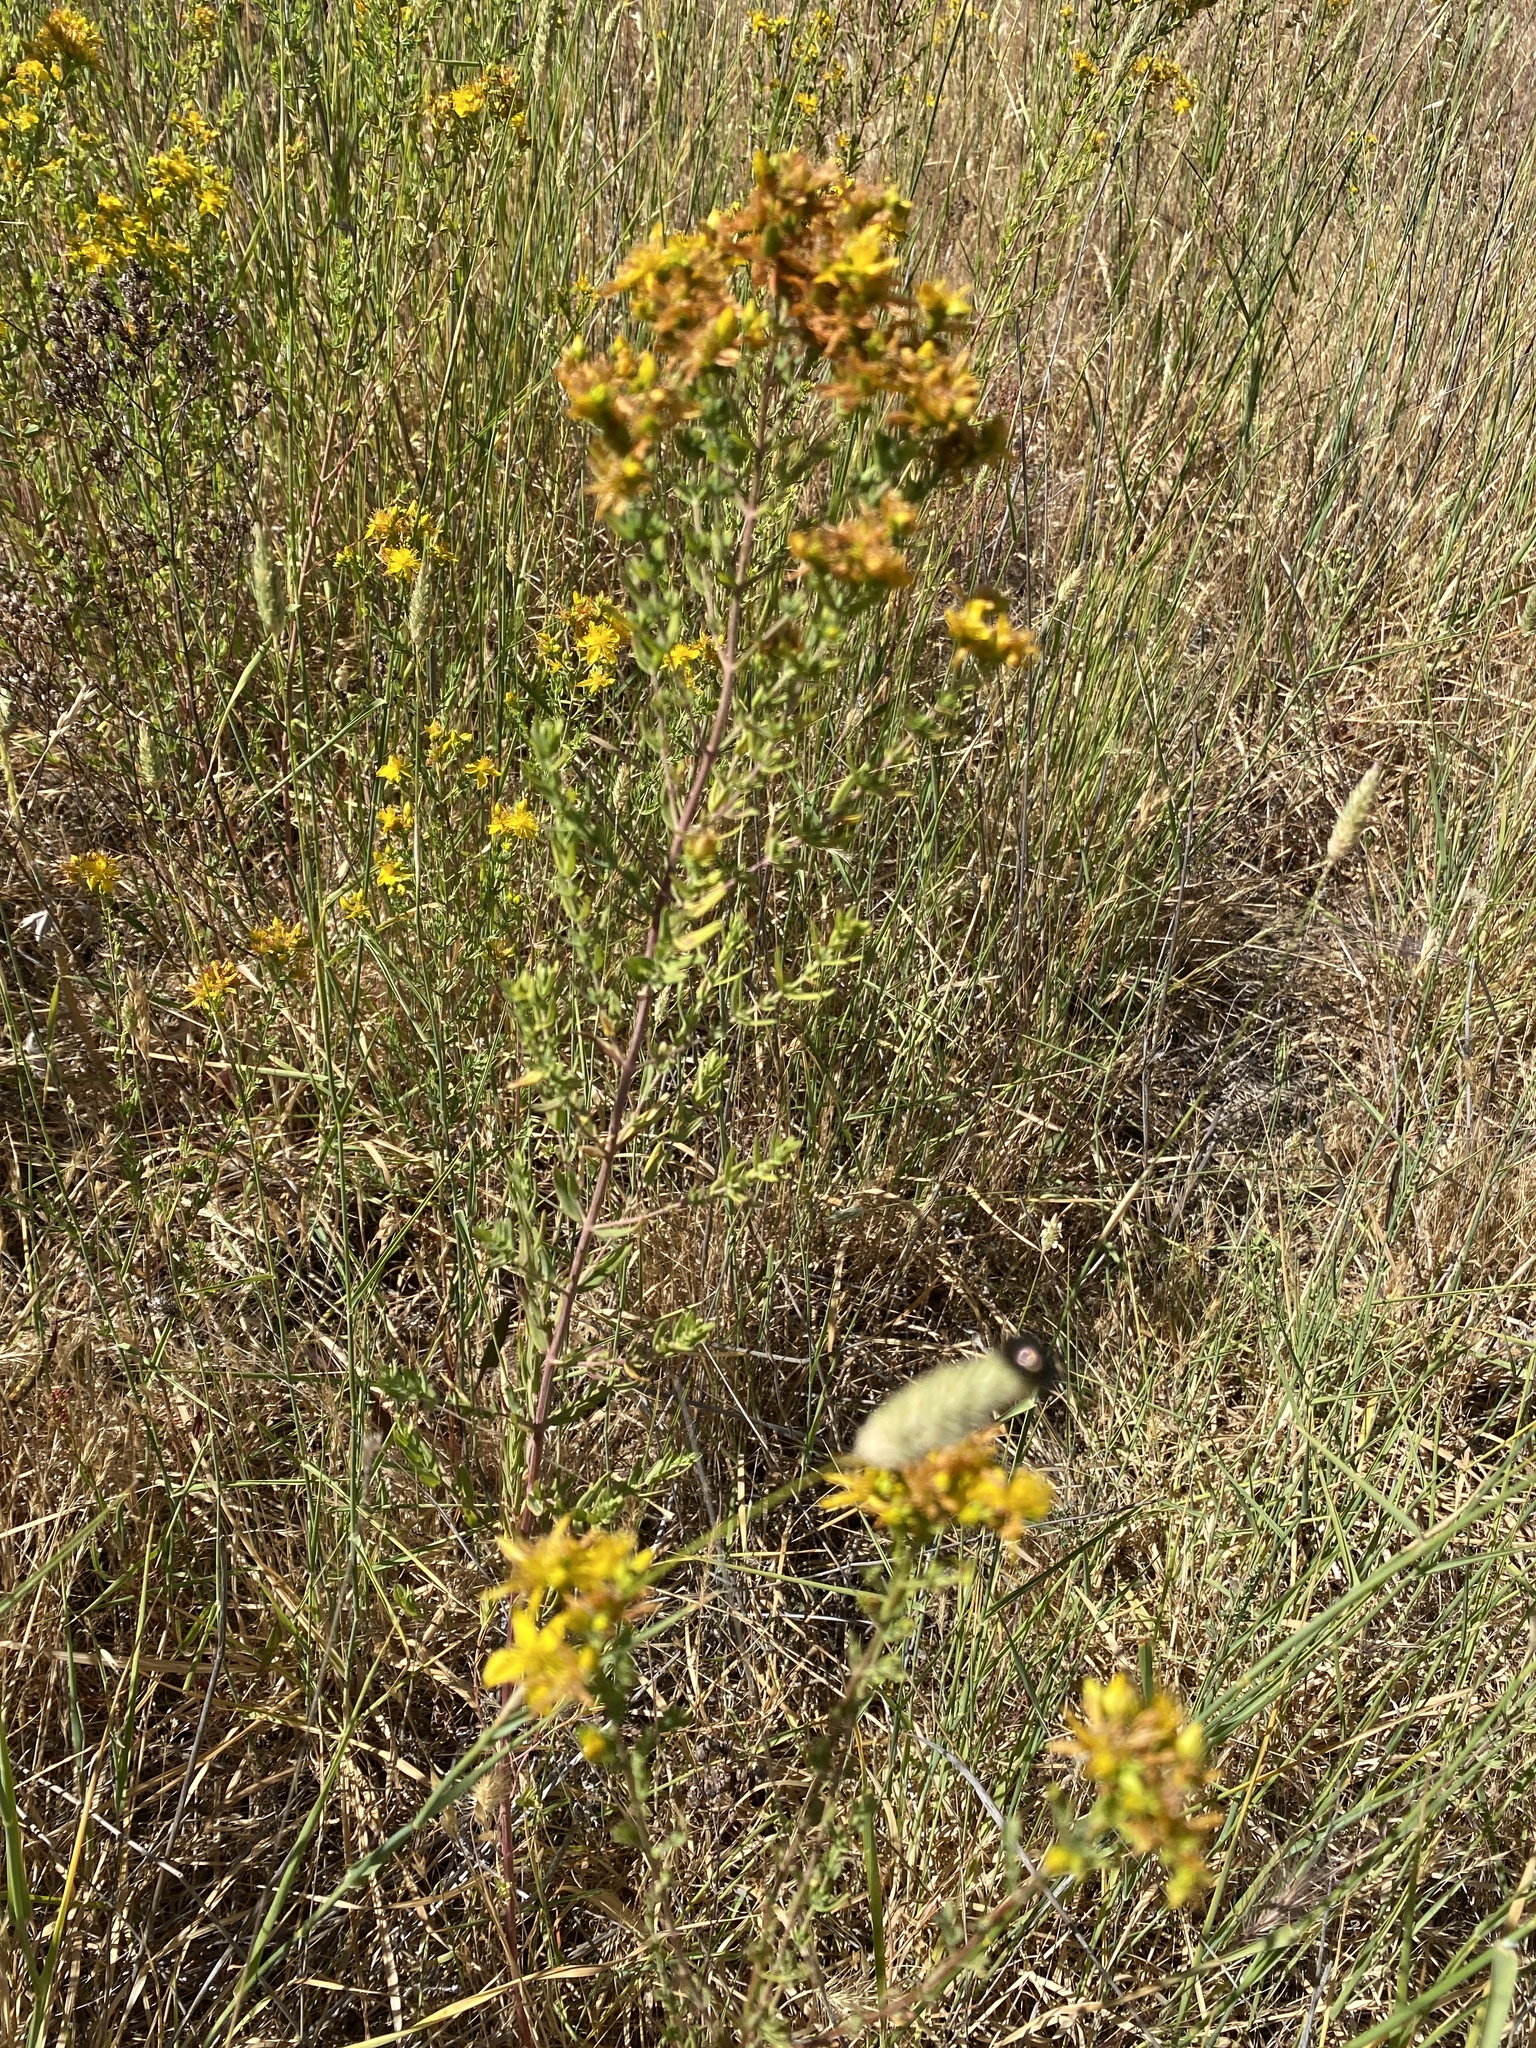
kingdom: Plantae
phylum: Tracheophyta
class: Magnoliopsida
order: Malpighiales
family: Hypericaceae
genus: Hypericum
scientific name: Hypericum perforatum
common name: Common st. johnswort
